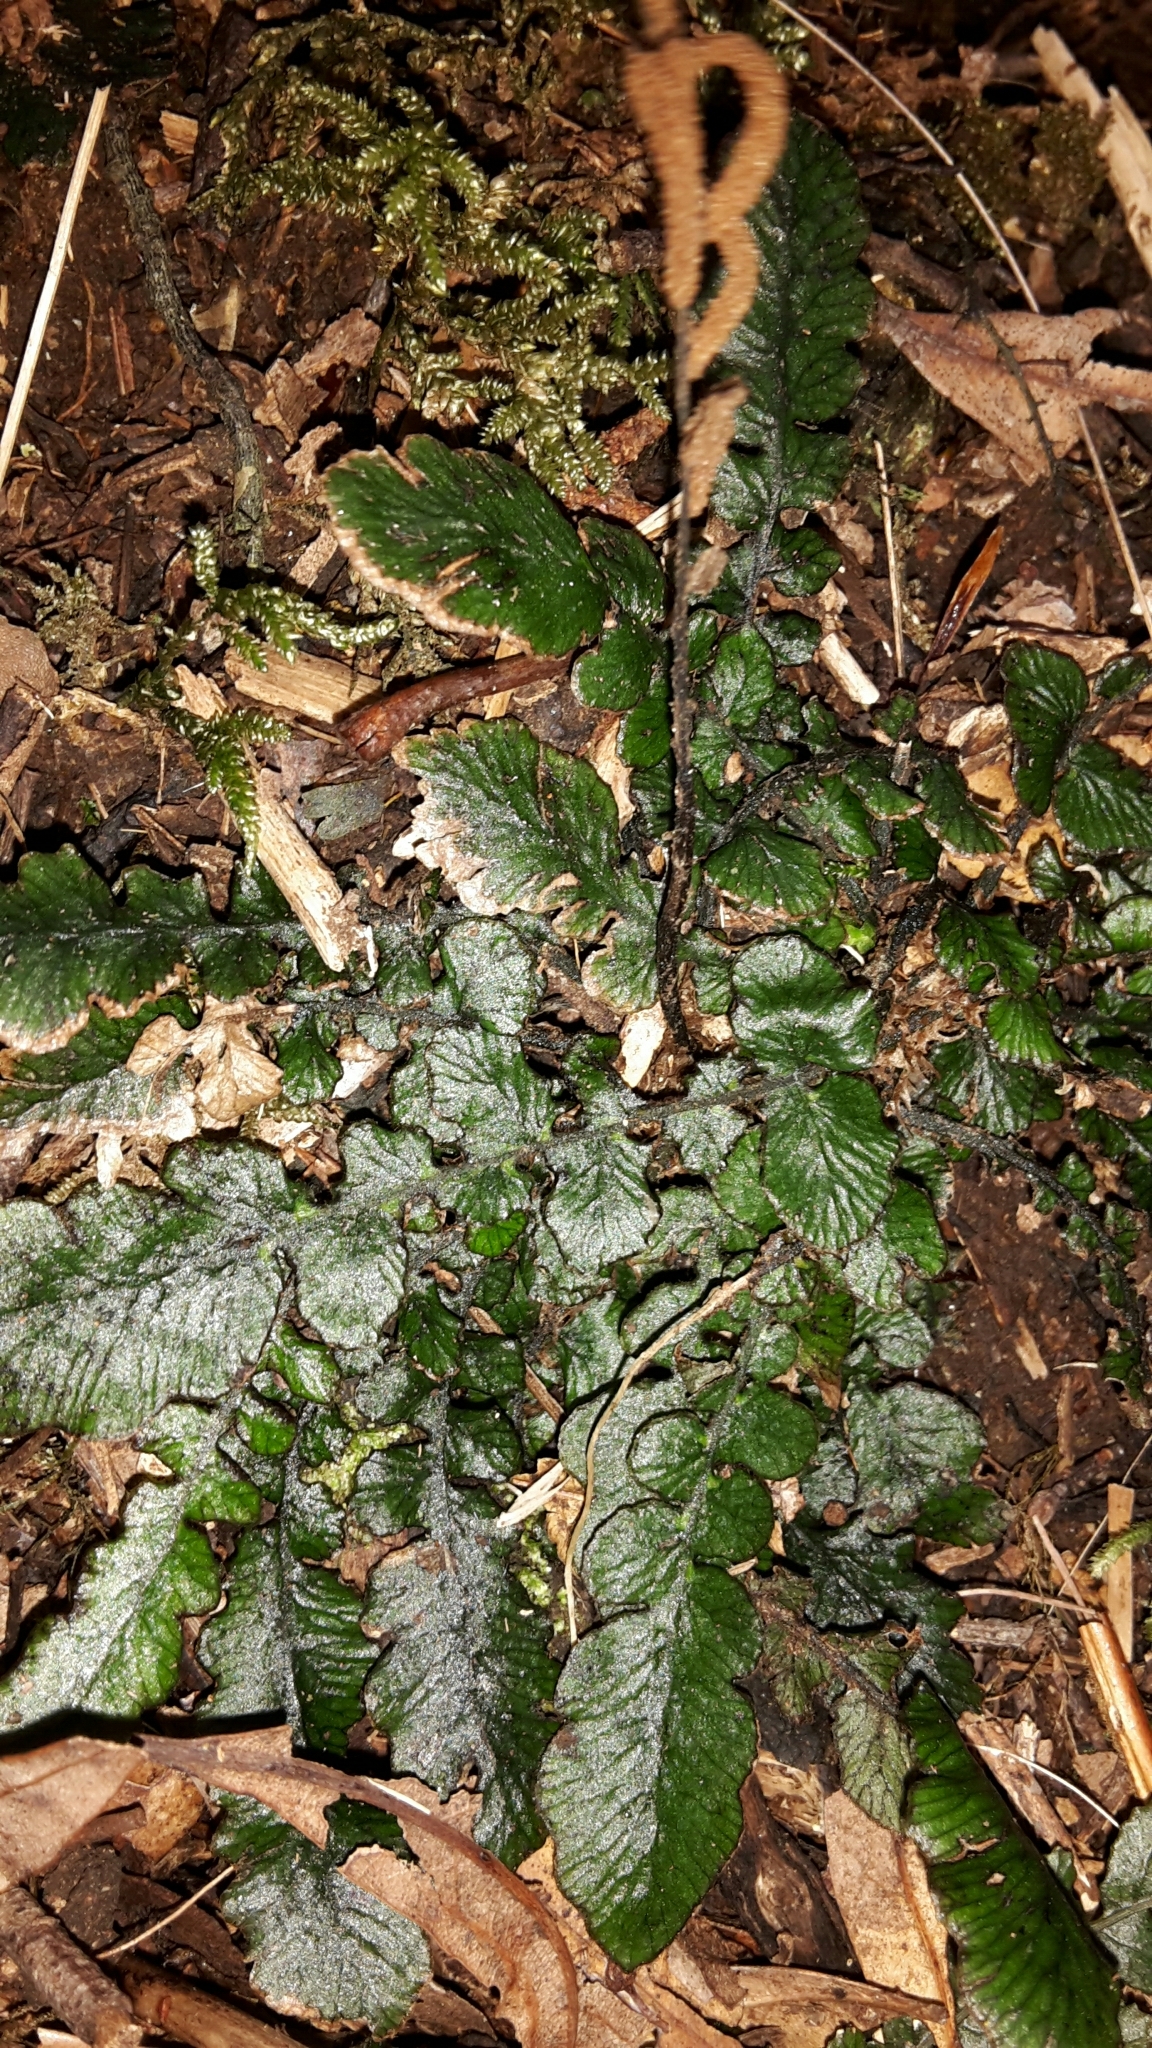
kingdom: Plantae
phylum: Tracheophyta
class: Polypodiopsida
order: Polypodiales
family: Blechnaceae
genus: Cranfillia
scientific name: Cranfillia nigra
